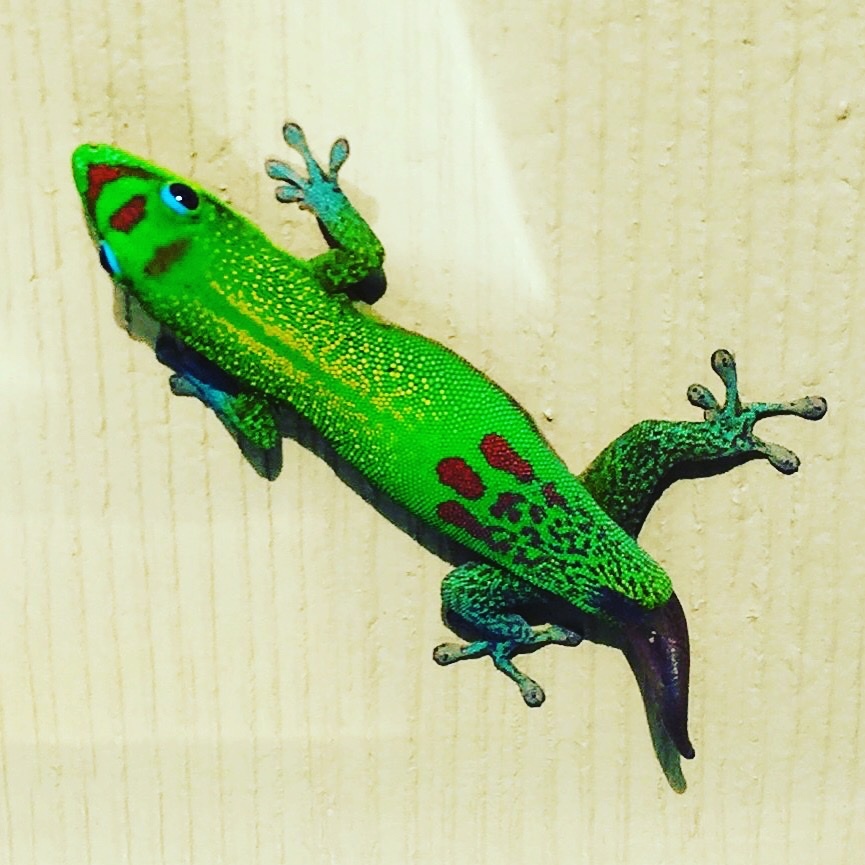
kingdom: Animalia
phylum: Chordata
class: Squamata
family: Gekkonidae
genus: Phelsuma
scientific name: Phelsuma laticauda
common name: Gold dust day gecko
